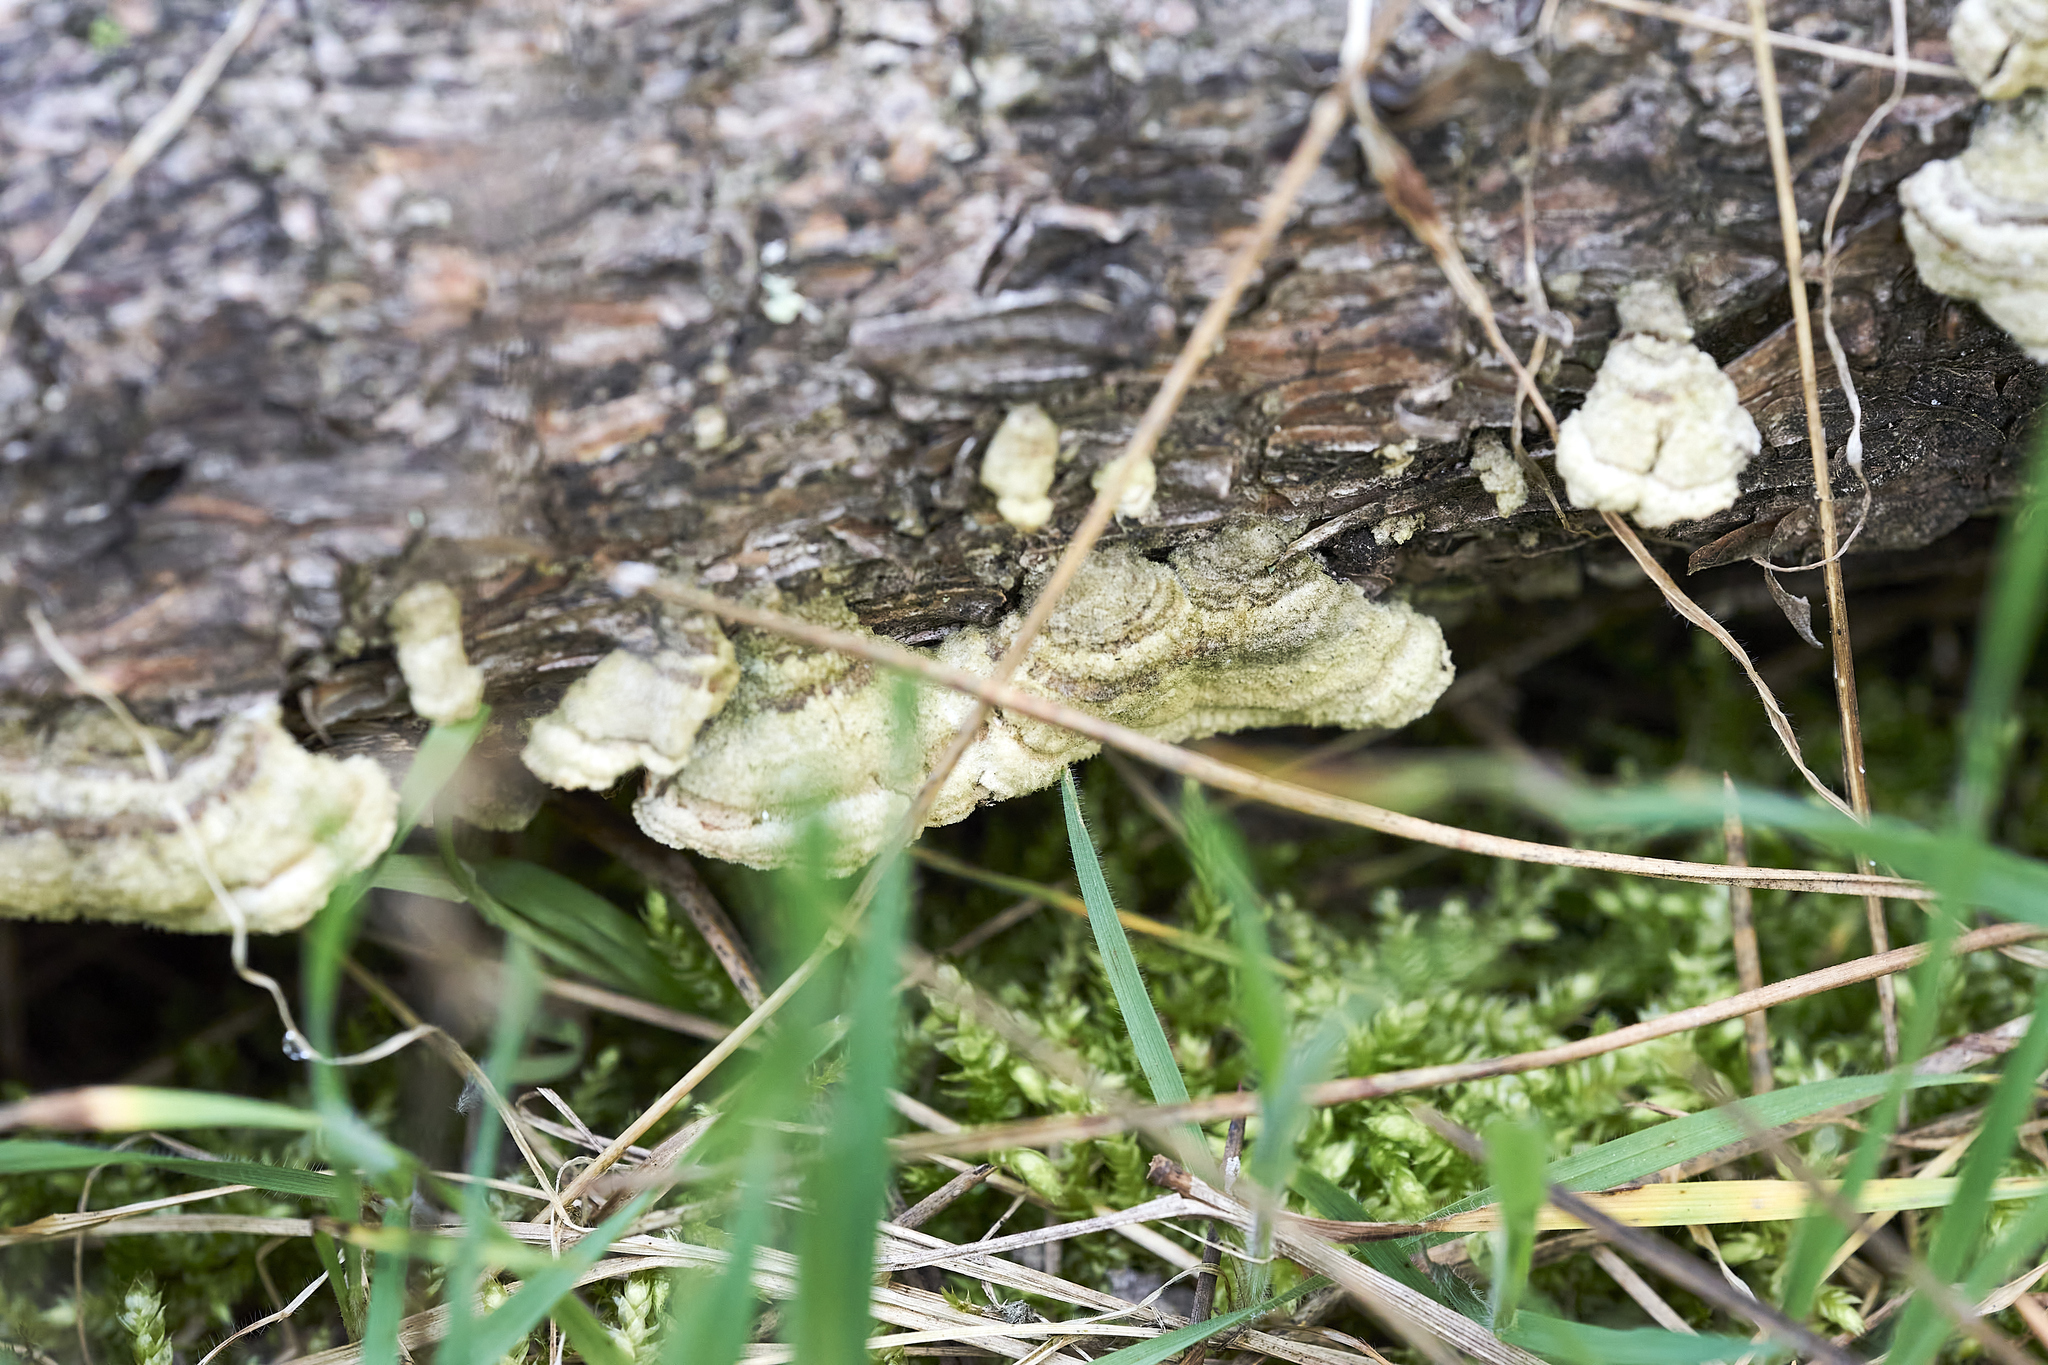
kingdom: Fungi
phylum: Basidiomycota
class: Agaricomycetes
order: Hymenochaetales
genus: Trichaptum
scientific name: Trichaptum abietinum
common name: Purplepore bracket
